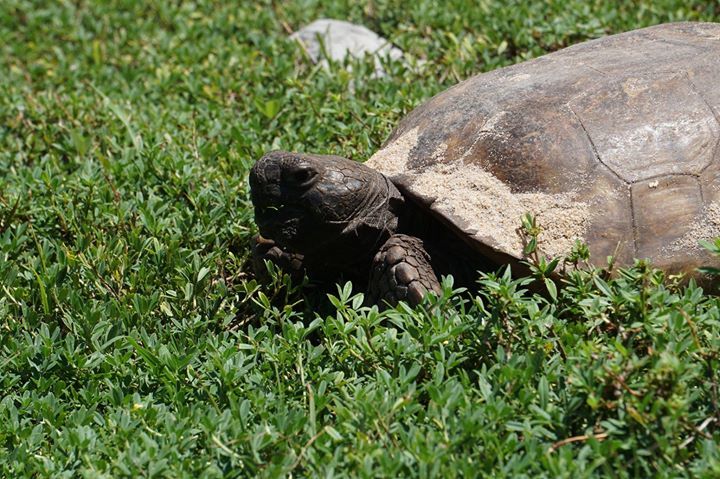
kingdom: Animalia
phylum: Chordata
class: Testudines
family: Testudinidae
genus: Gopherus
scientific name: Gopherus polyphemus
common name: Florida gopher tortoise
